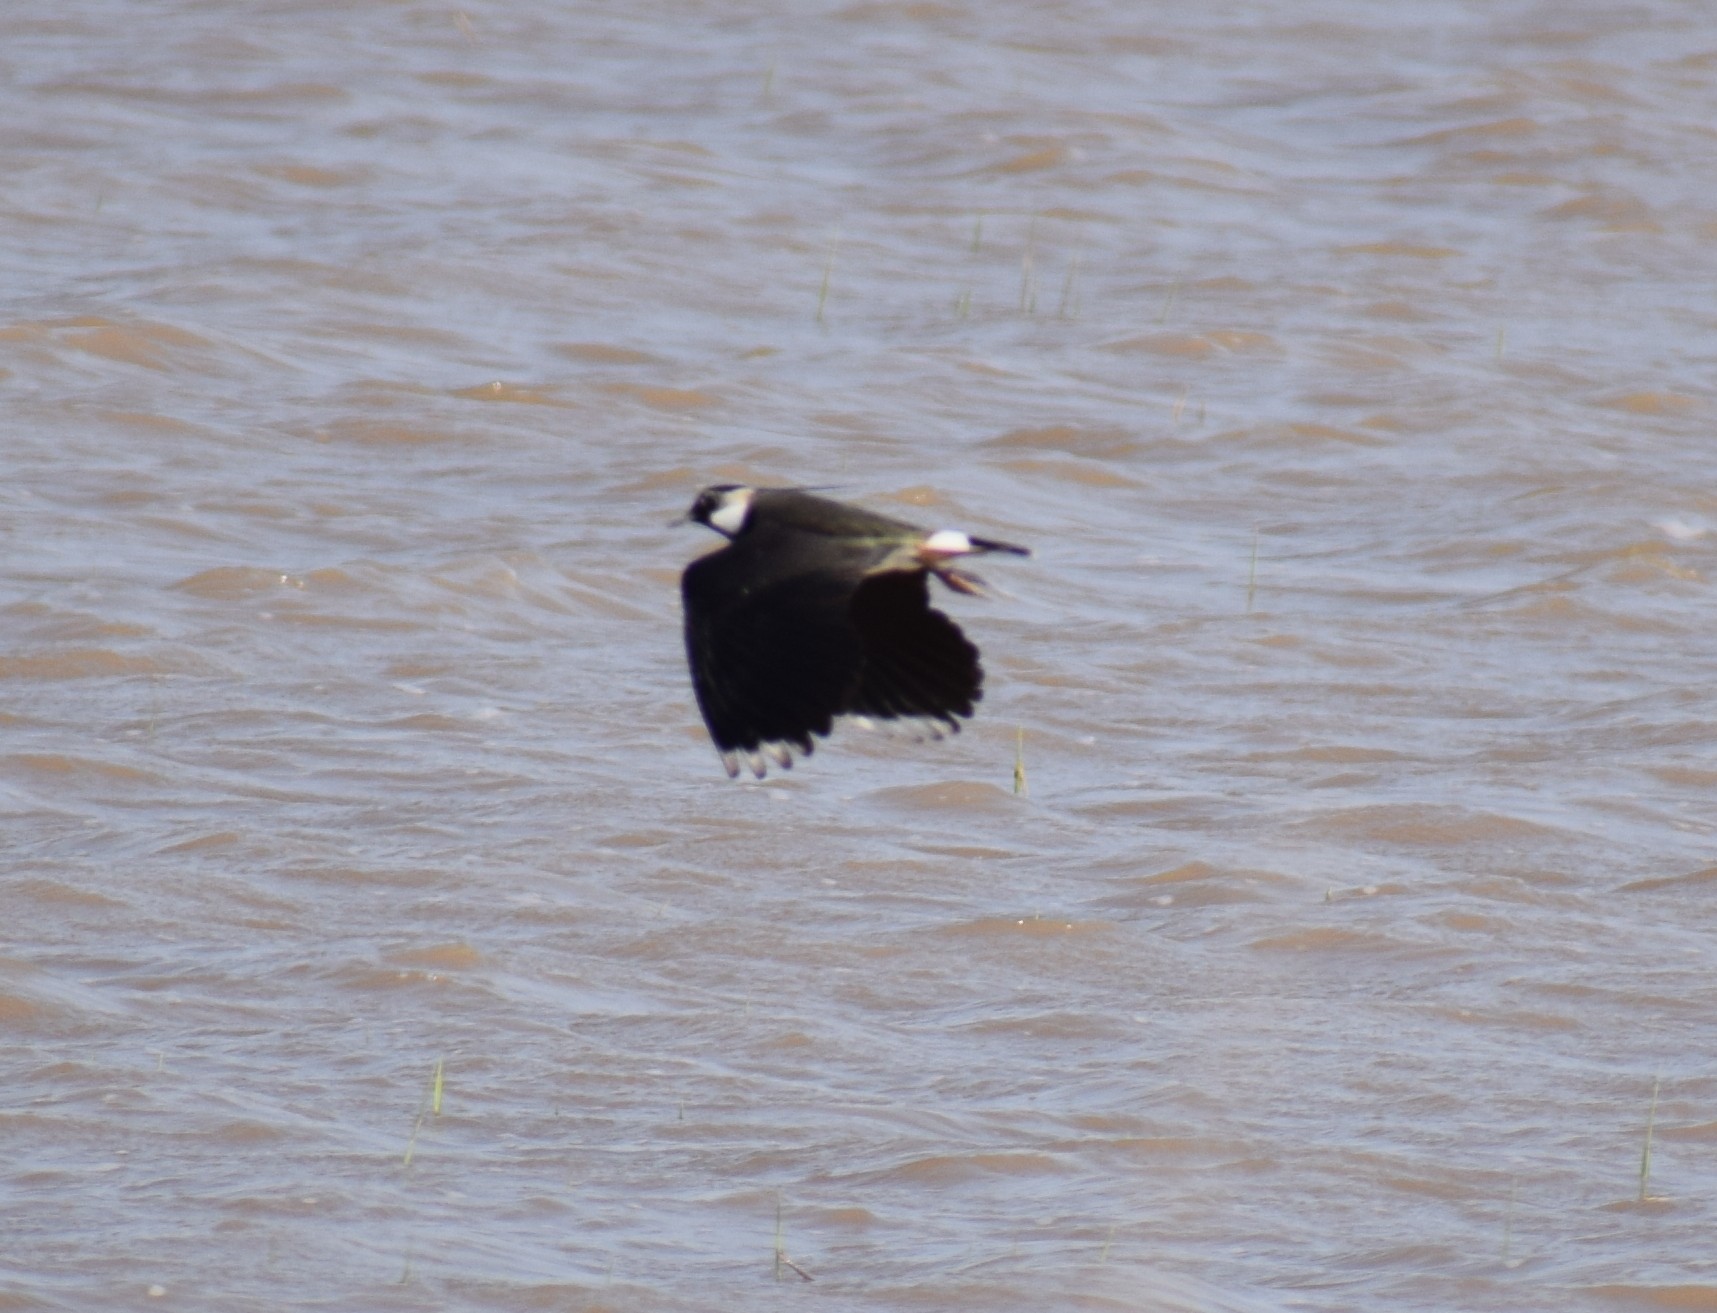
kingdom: Animalia
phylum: Chordata
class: Aves
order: Charadriiformes
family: Charadriidae
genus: Vanellus
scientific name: Vanellus vanellus
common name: Northern lapwing
